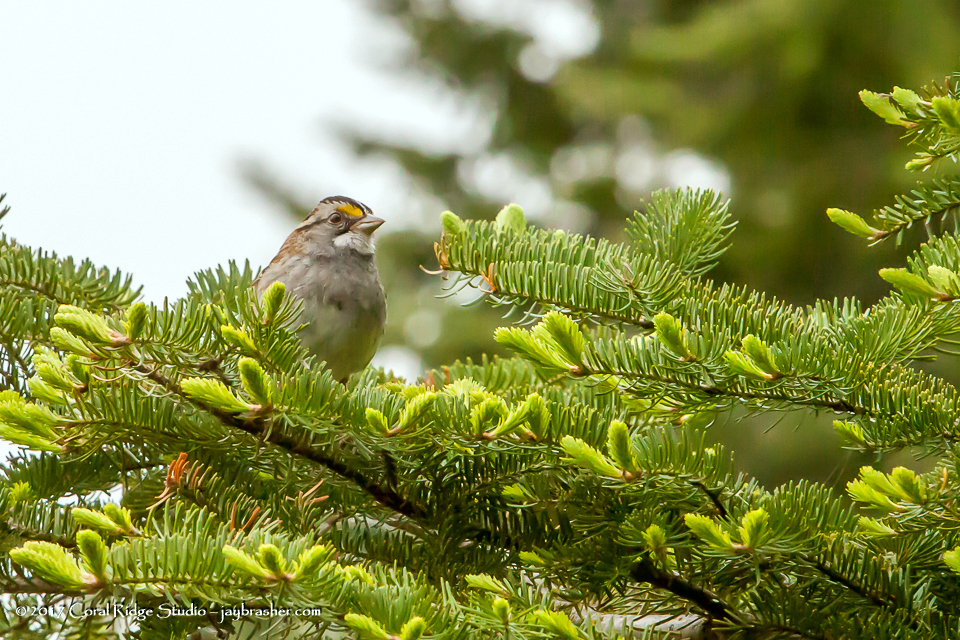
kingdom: Animalia
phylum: Chordata
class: Aves
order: Passeriformes
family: Passerellidae
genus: Zonotrichia
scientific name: Zonotrichia albicollis
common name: White-throated sparrow
